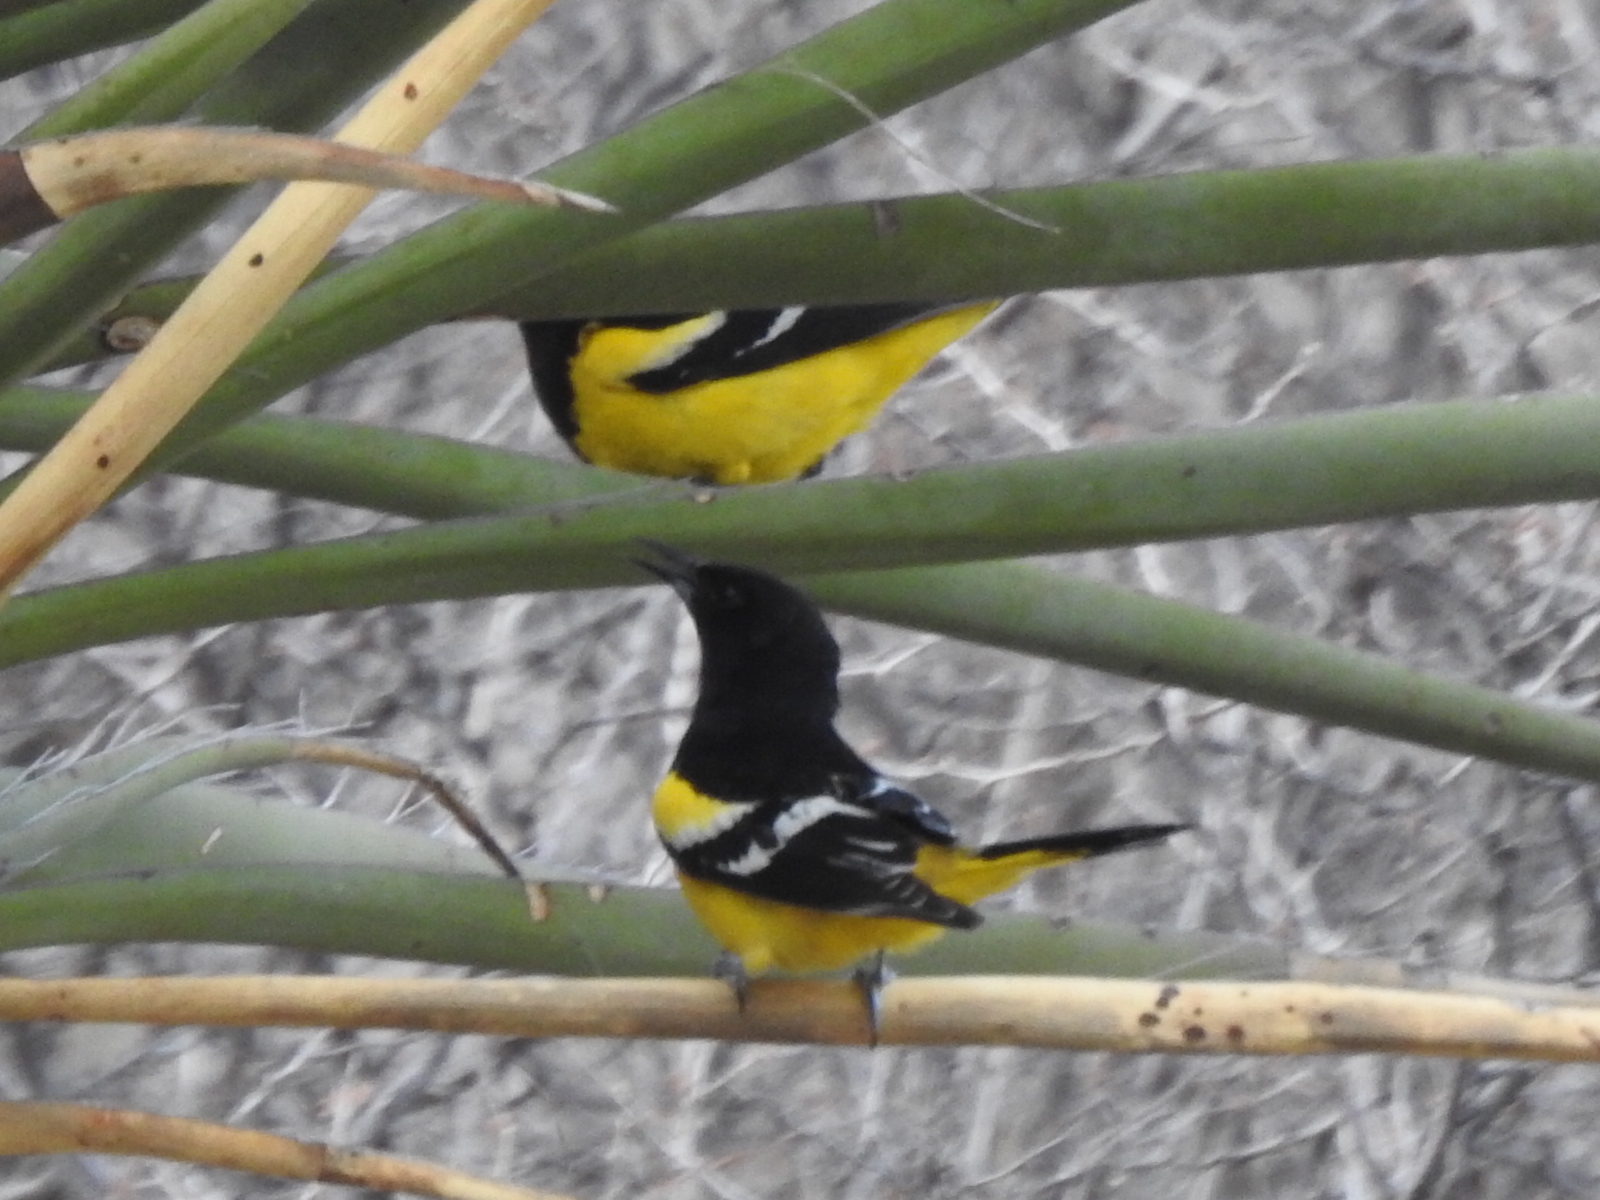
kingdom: Animalia
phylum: Chordata
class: Aves
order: Passeriformes
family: Icteridae
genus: Icterus
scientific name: Icterus parisorum
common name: Scott's oriole
